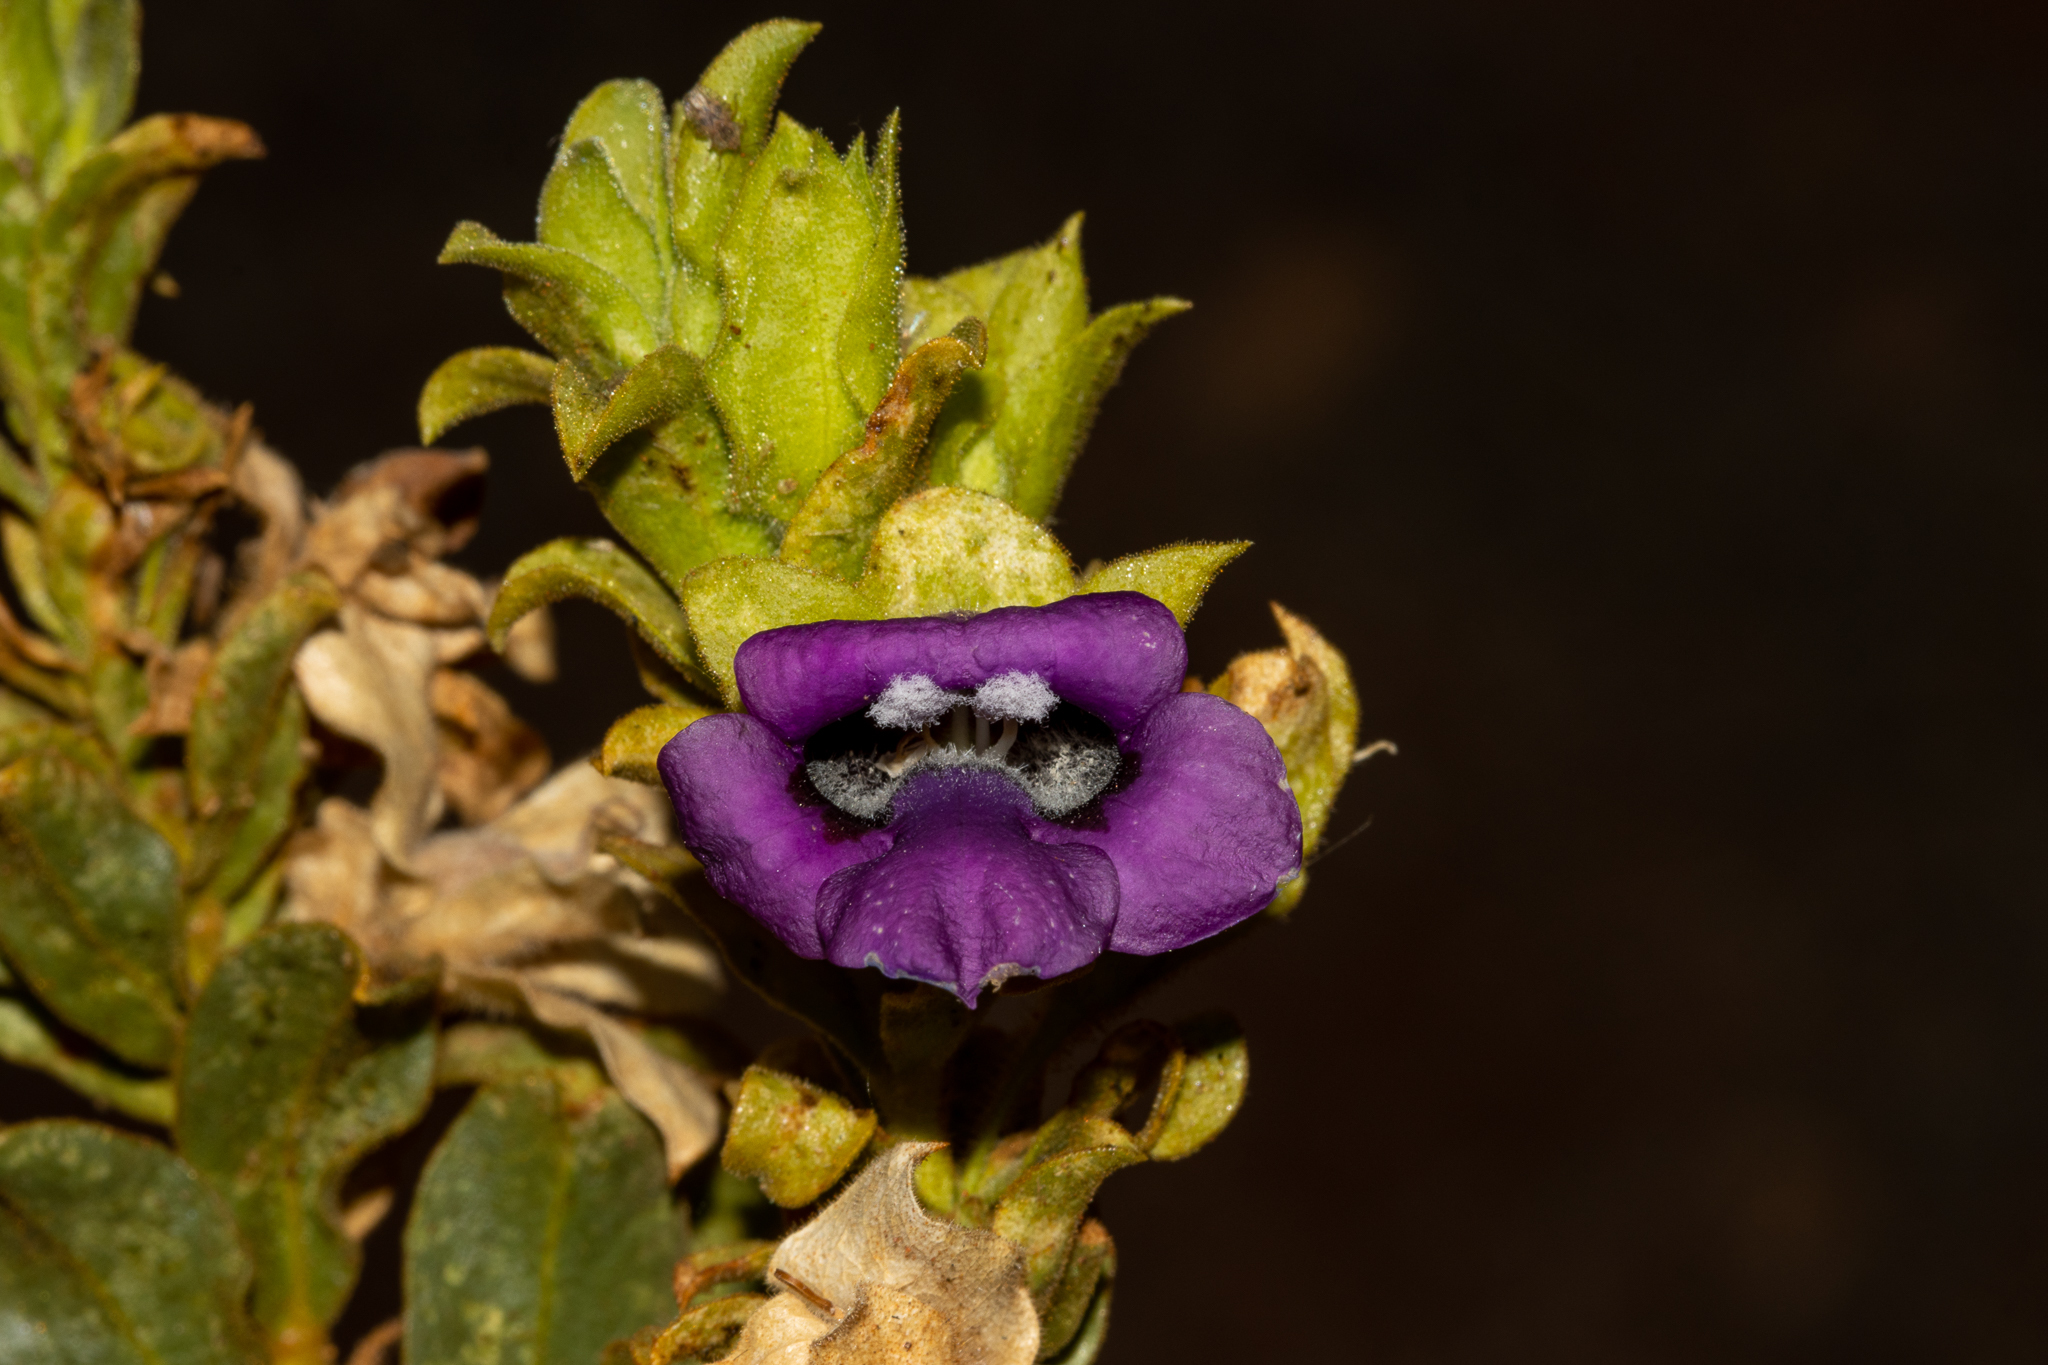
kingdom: Plantae
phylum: Tracheophyta
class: Magnoliopsida
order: Lamiales
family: Scrophulariaceae
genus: Eremophila
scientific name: Eremophila willsii
